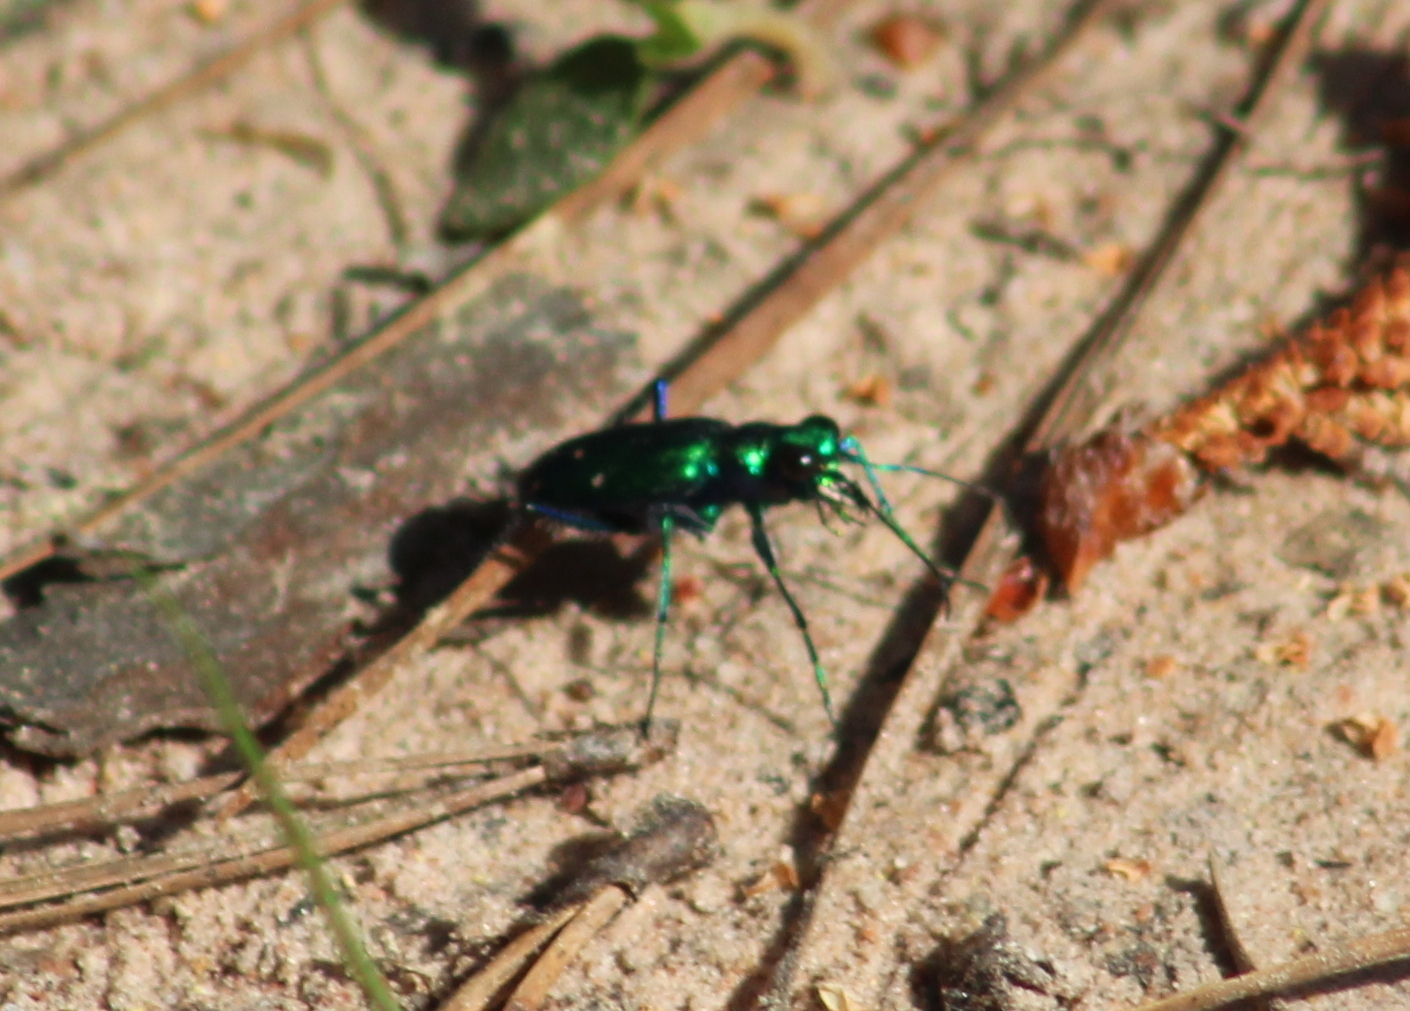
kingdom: Animalia
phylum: Arthropoda
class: Insecta
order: Coleoptera
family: Carabidae
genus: Cicindela
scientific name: Cicindela sexguttata
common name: Six-spotted tiger beetle
